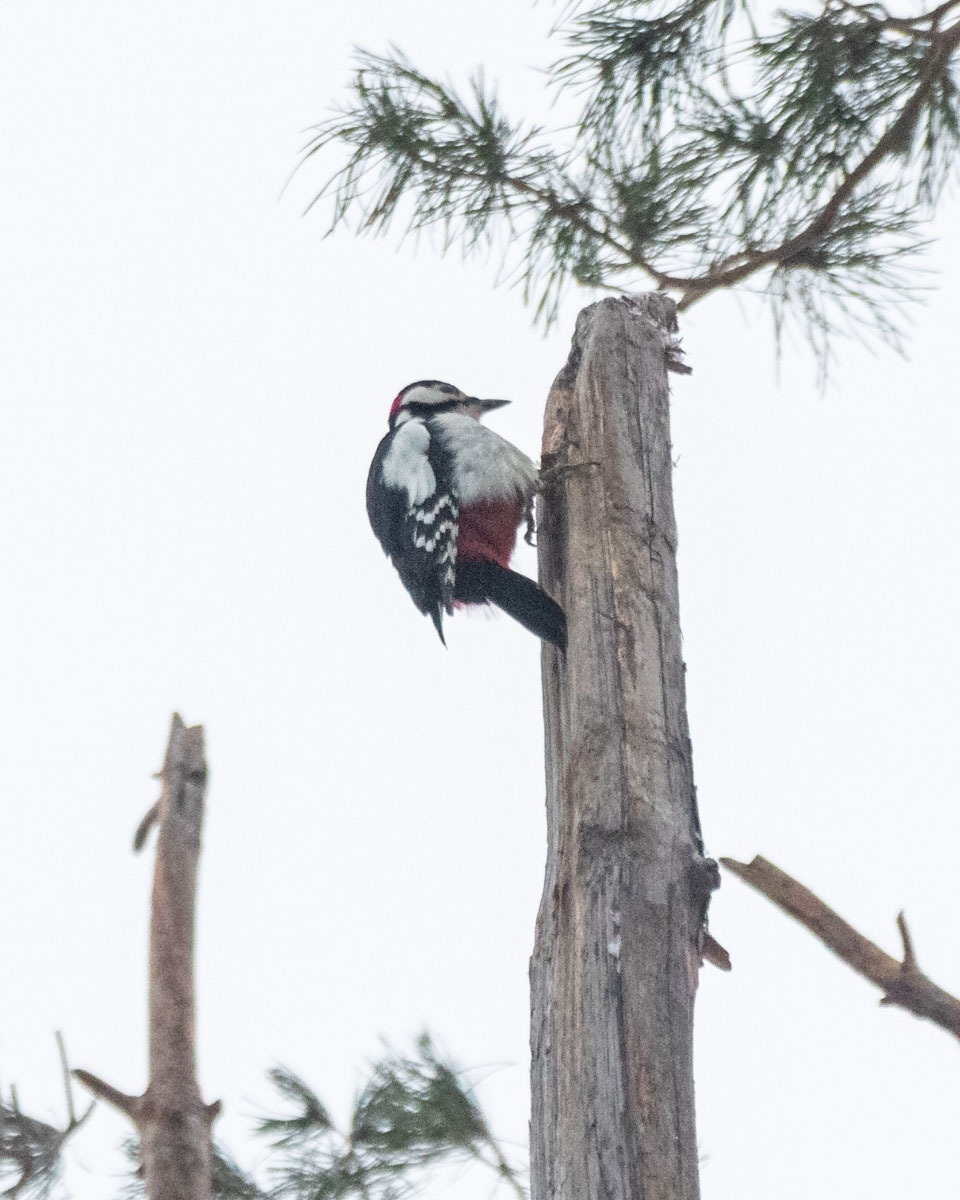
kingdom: Animalia
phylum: Chordata
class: Aves
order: Piciformes
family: Picidae
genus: Dendrocopos
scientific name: Dendrocopos major
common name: Great spotted woodpecker
